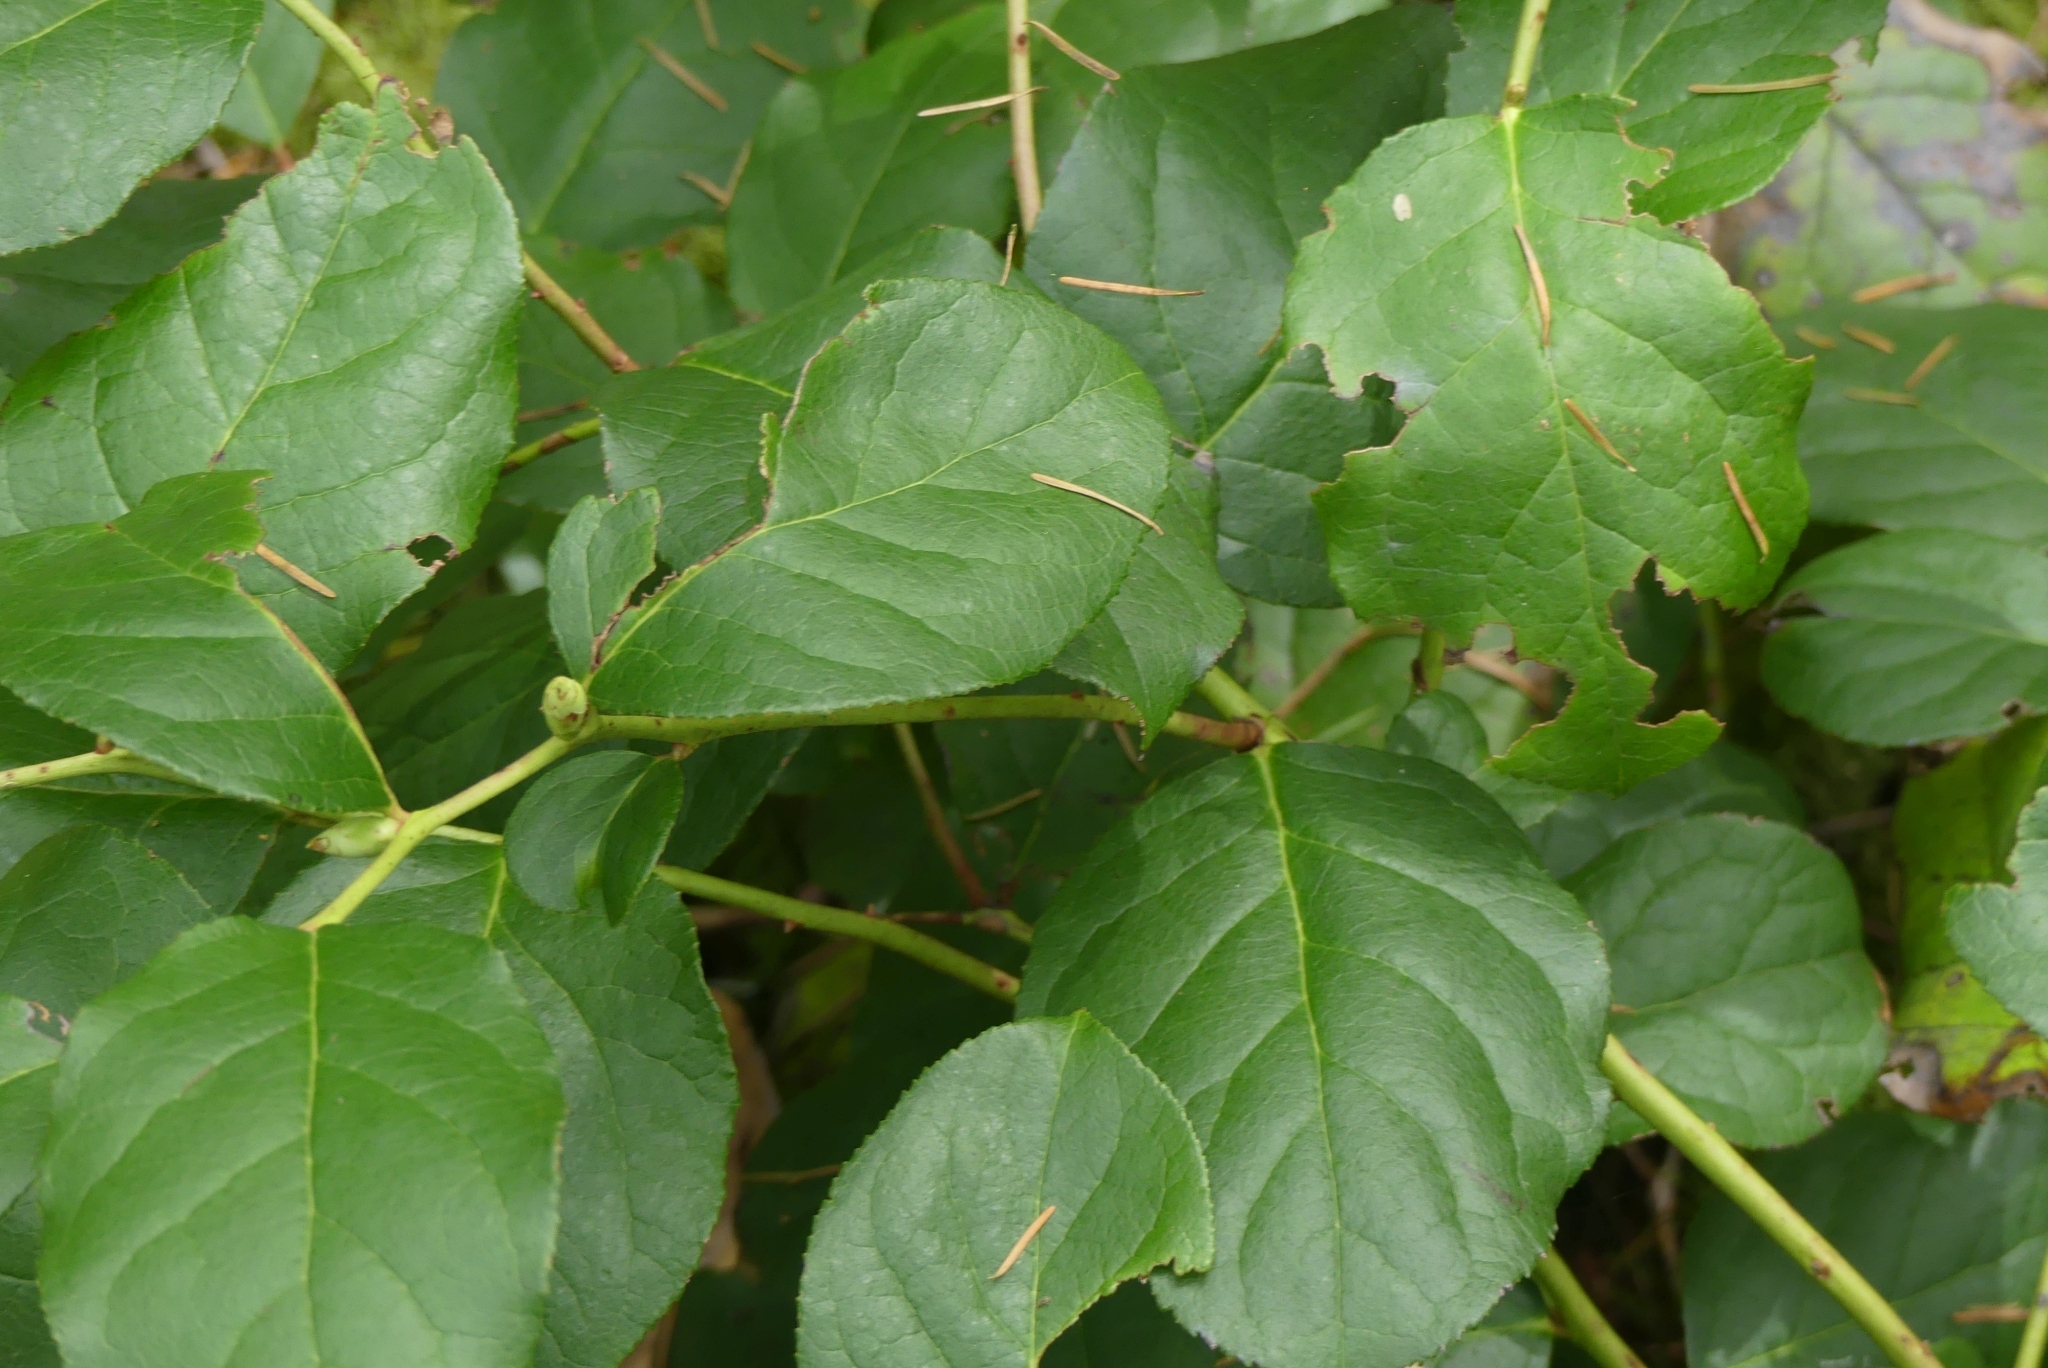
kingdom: Plantae
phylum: Tracheophyta
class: Magnoliopsida
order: Ericales
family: Ericaceae
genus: Gaultheria
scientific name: Gaultheria shallon
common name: Shallon
